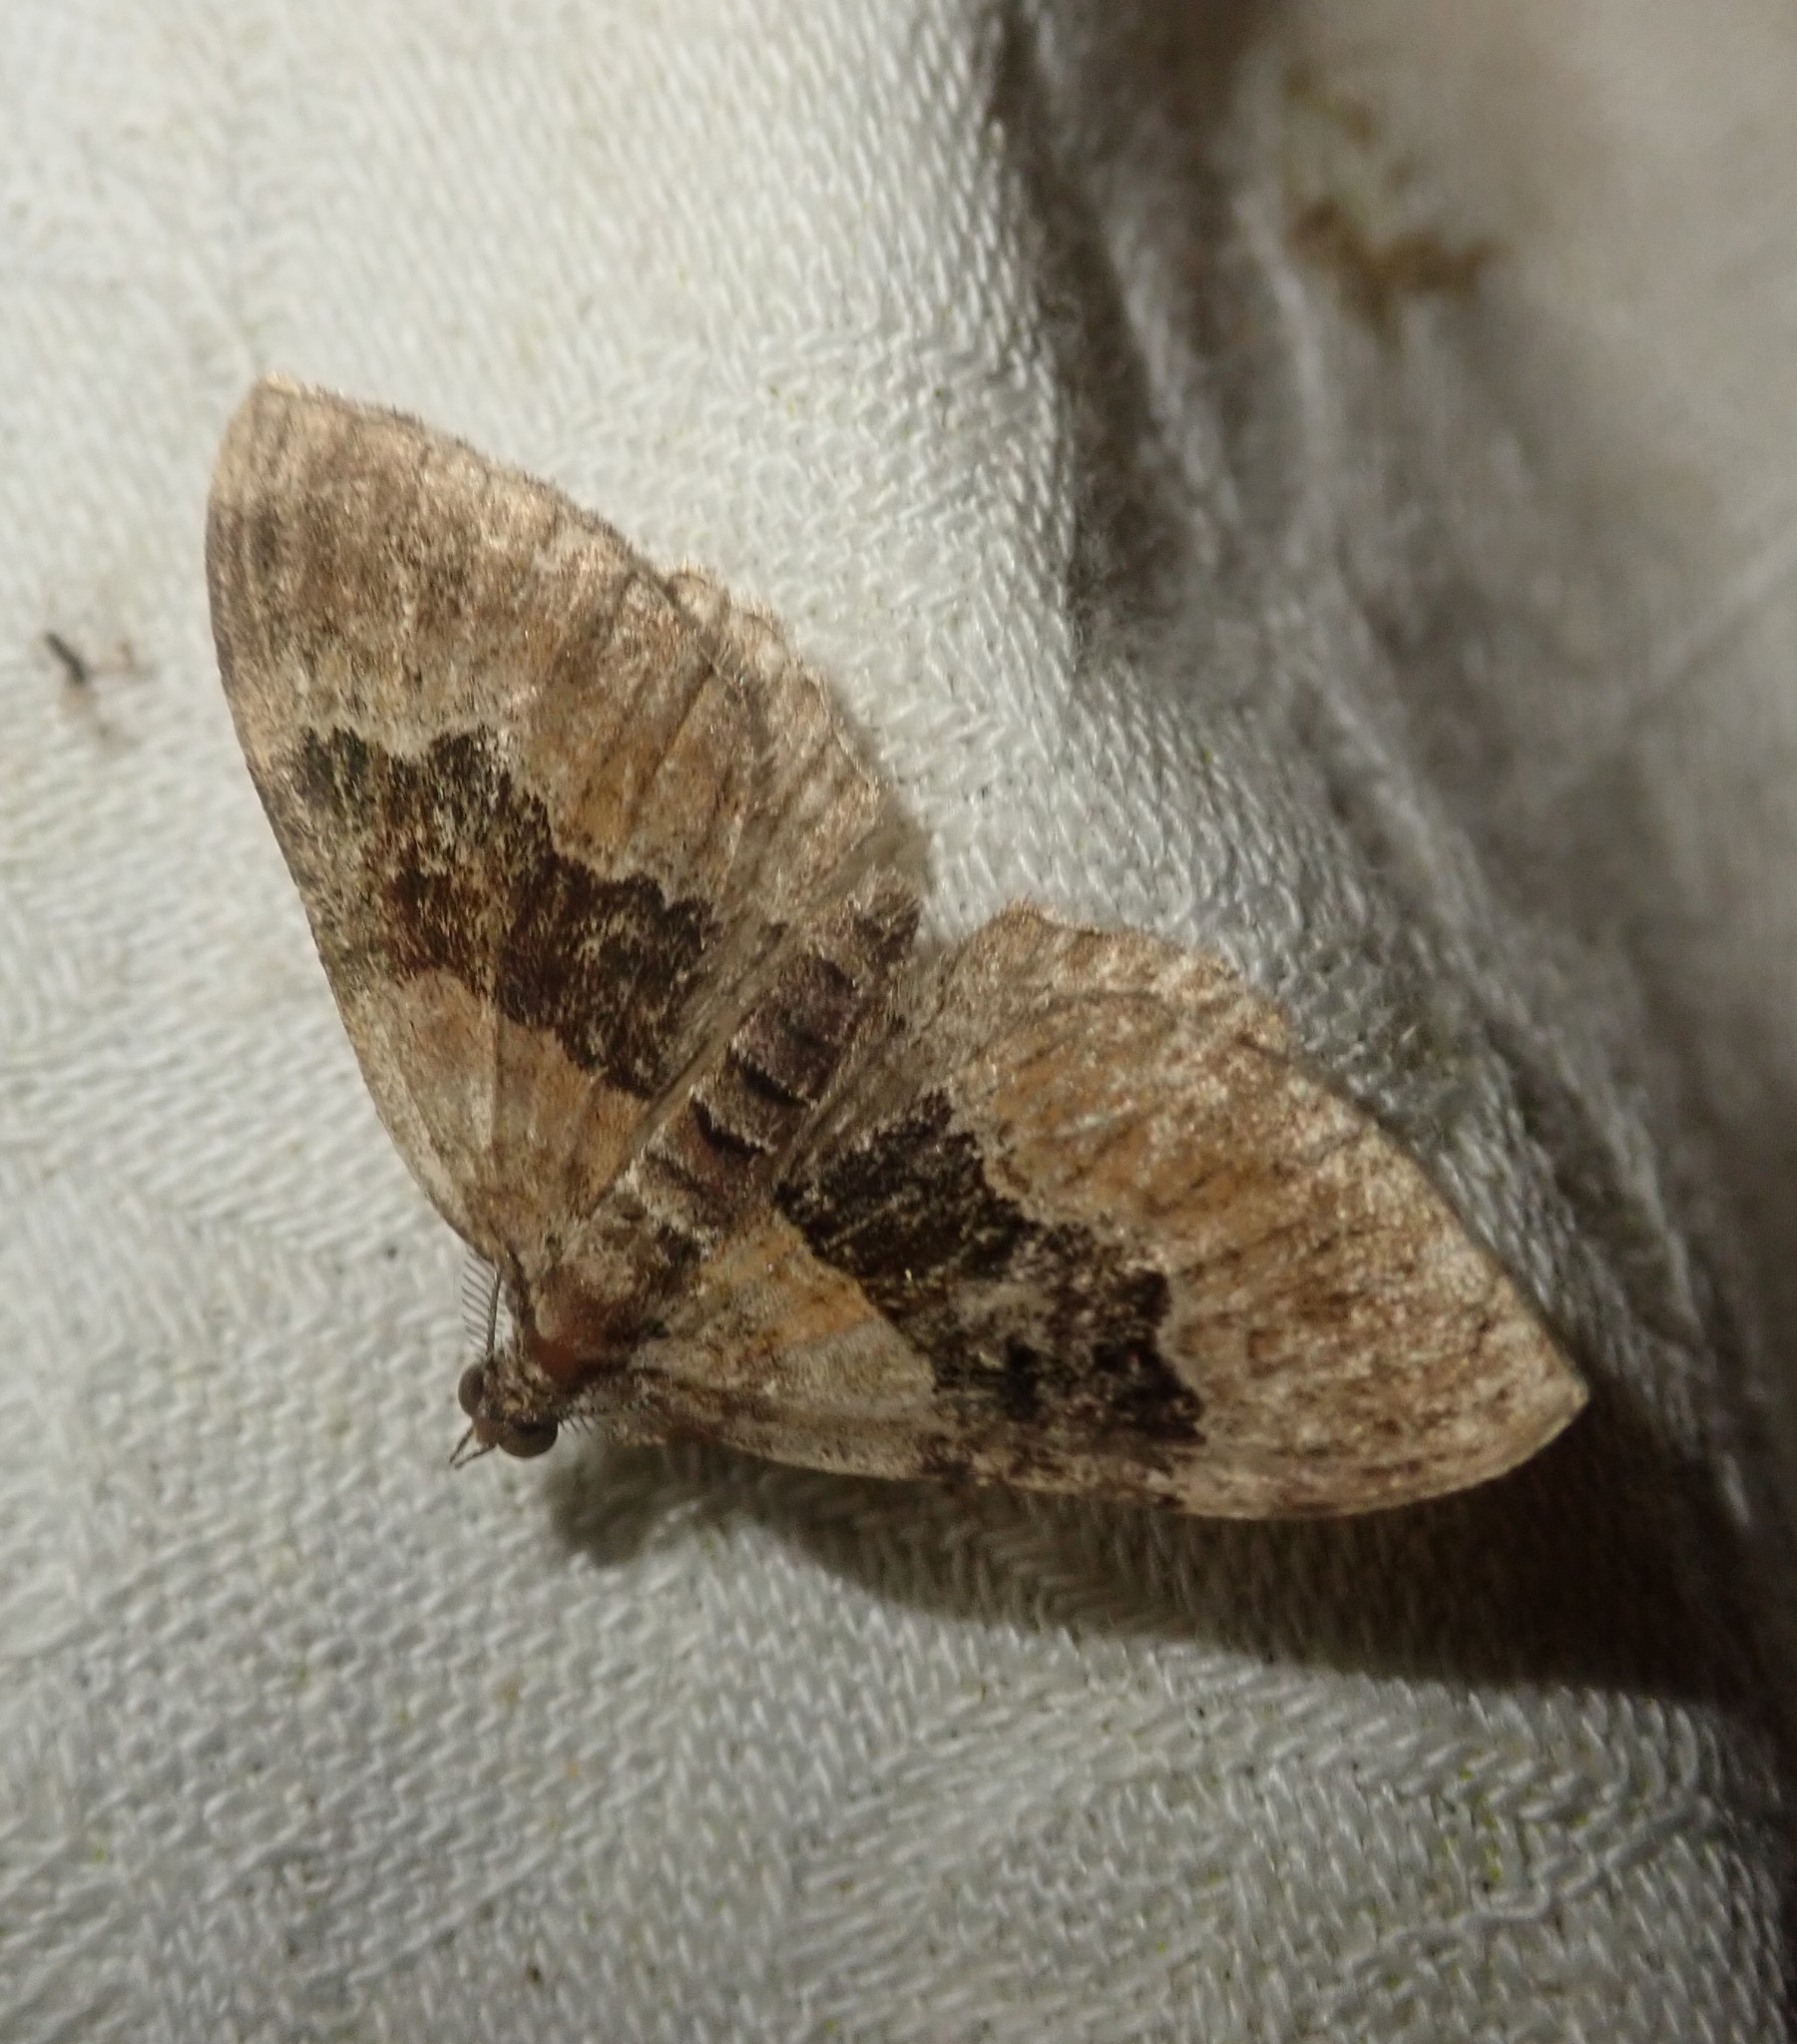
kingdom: Animalia
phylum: Arthropoda
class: Insecta
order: Lepidoptera
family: Geometridae
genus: Xanthorhoe
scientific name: Xanthorhoe quadrifasiata
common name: Large twin-spot carpet
